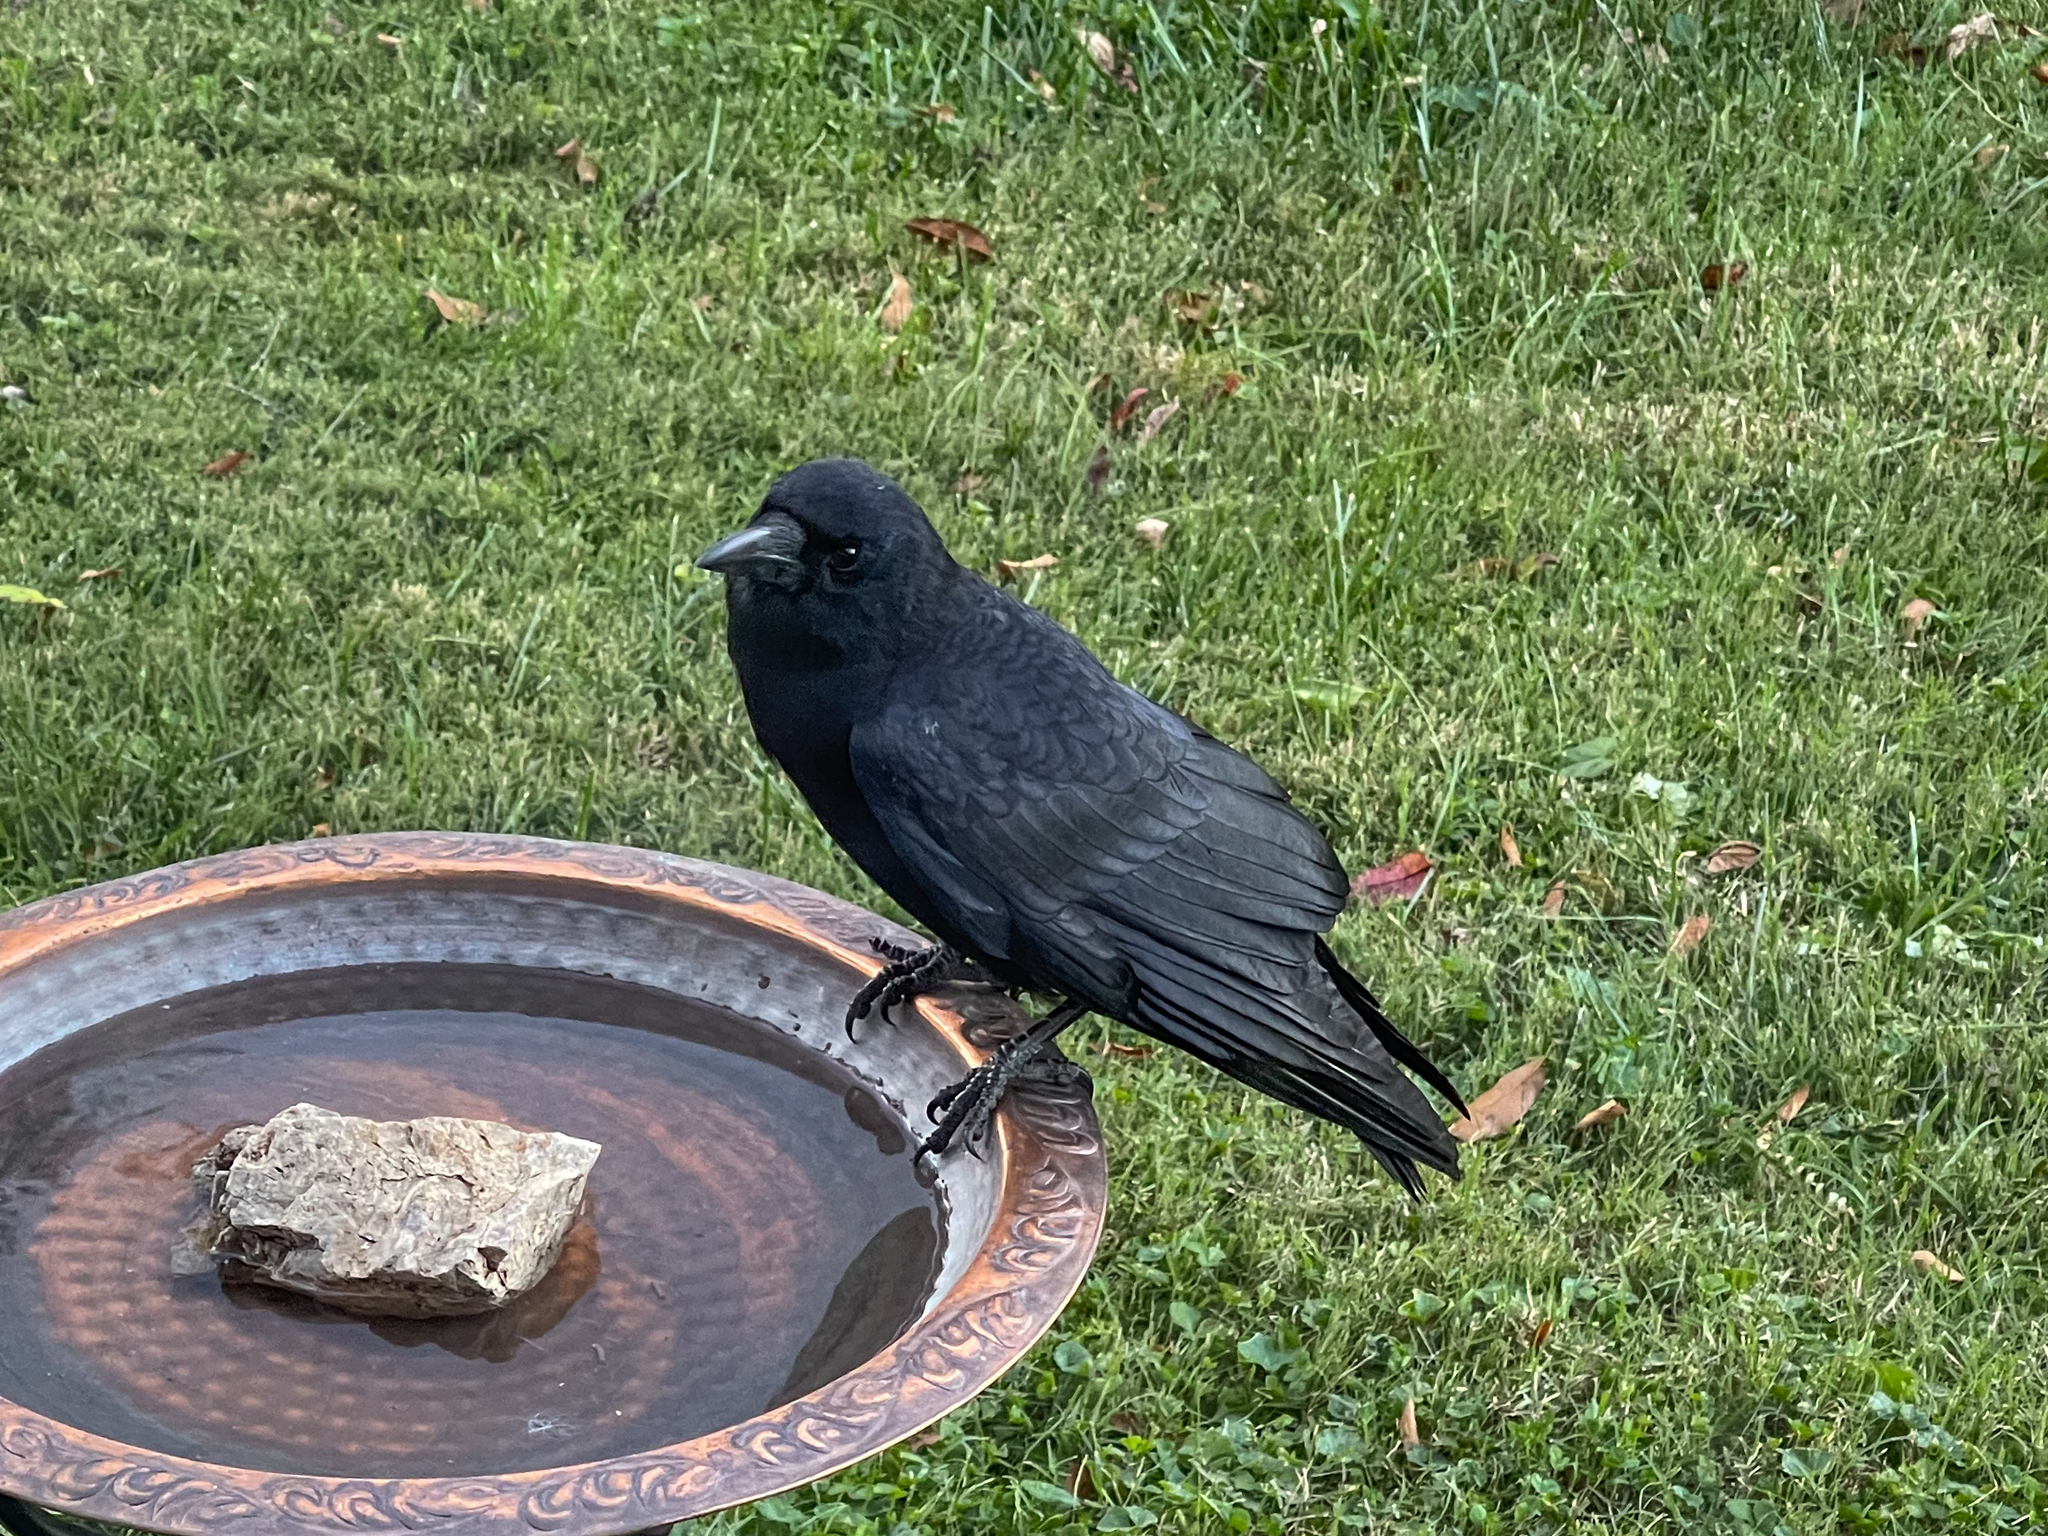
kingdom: Animalia
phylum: Chordata
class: Aves
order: Passeriformes
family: Corvidae
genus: Corvus
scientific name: Corvus brachyrhynchos
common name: American crow
